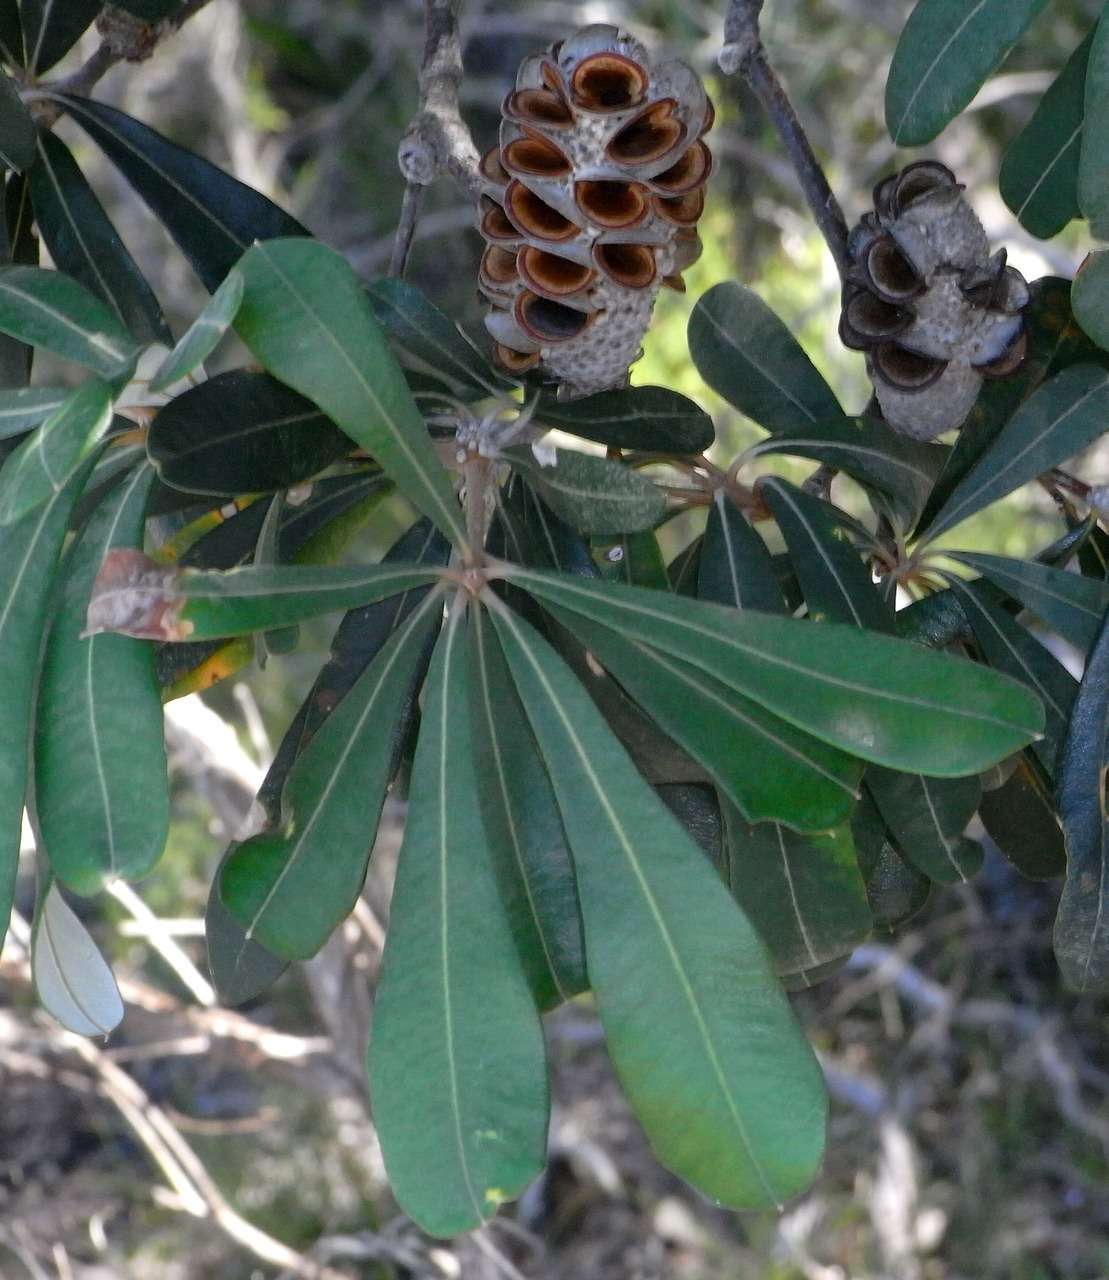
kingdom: Plantae
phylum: Tracheophyta
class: Magnoliopsida
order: Proteales
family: Proteaceae
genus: Banksia
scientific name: Banksia integrifolia
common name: White-honeysuckle
